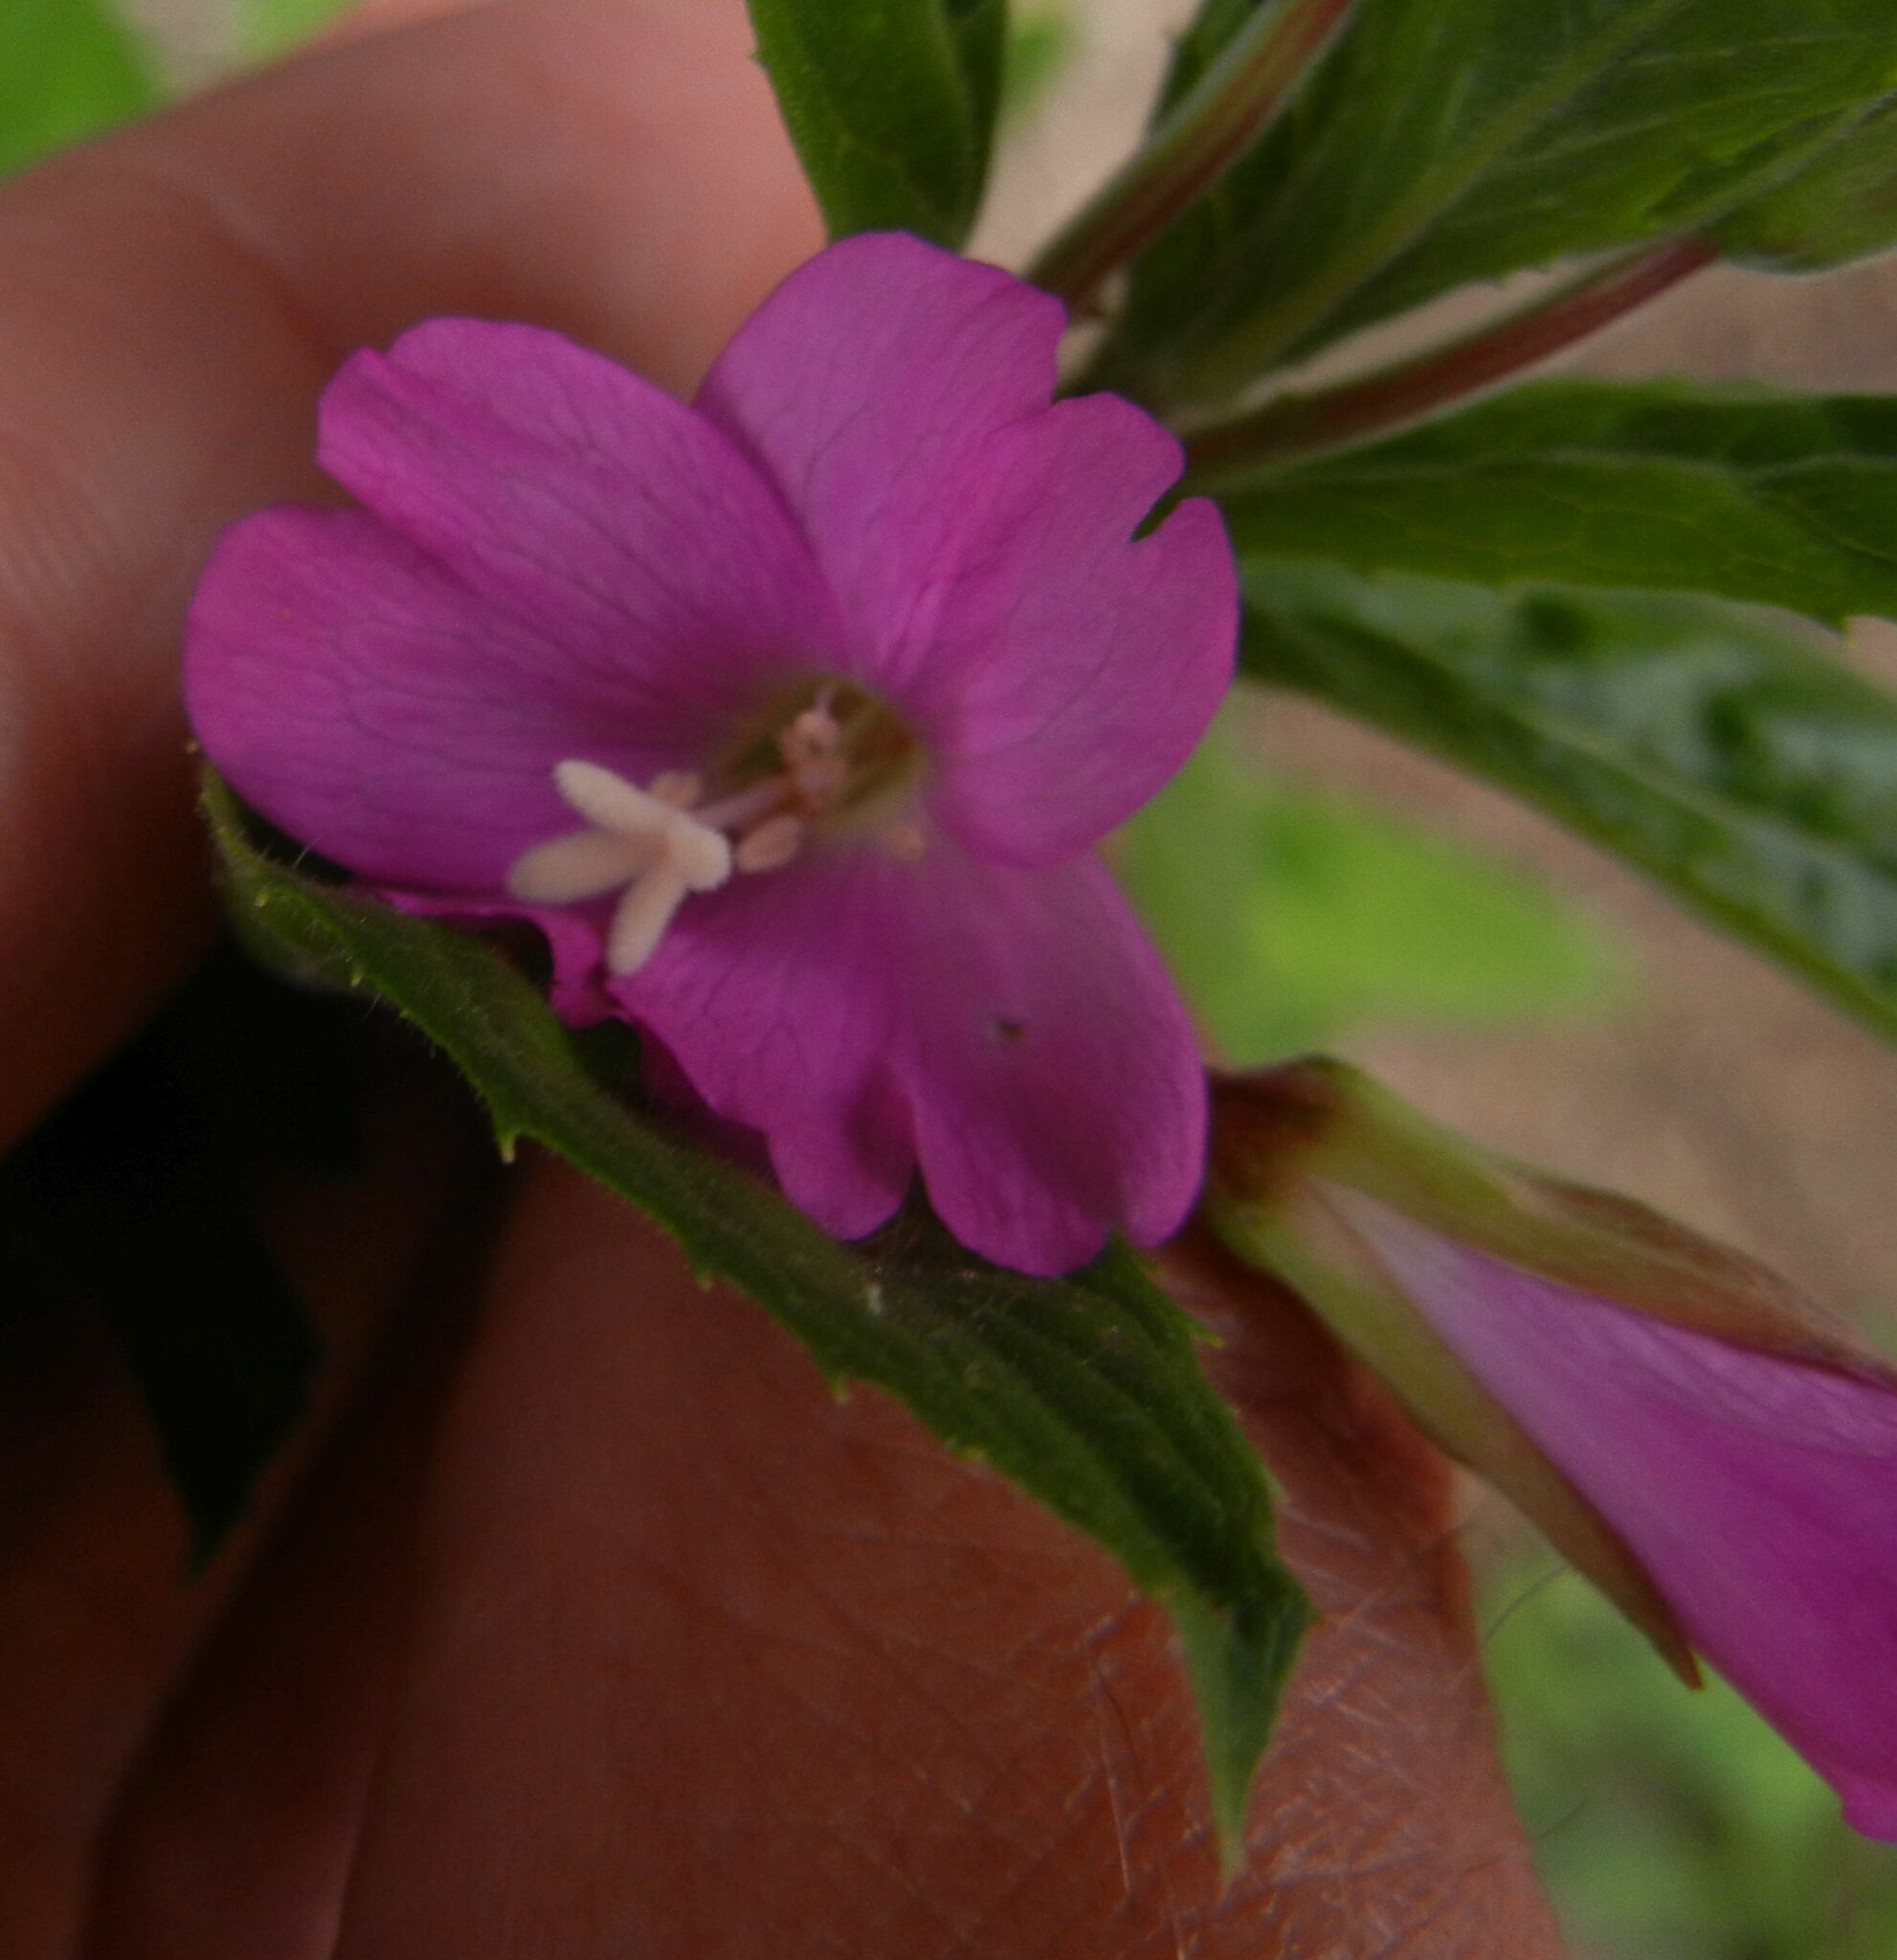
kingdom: Plantae
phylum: Tracheophyta
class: Magnoliopsida
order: Myrtales
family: Onagraceae
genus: Epilobium
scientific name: Epilobium hirsutum
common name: Great willowherb
